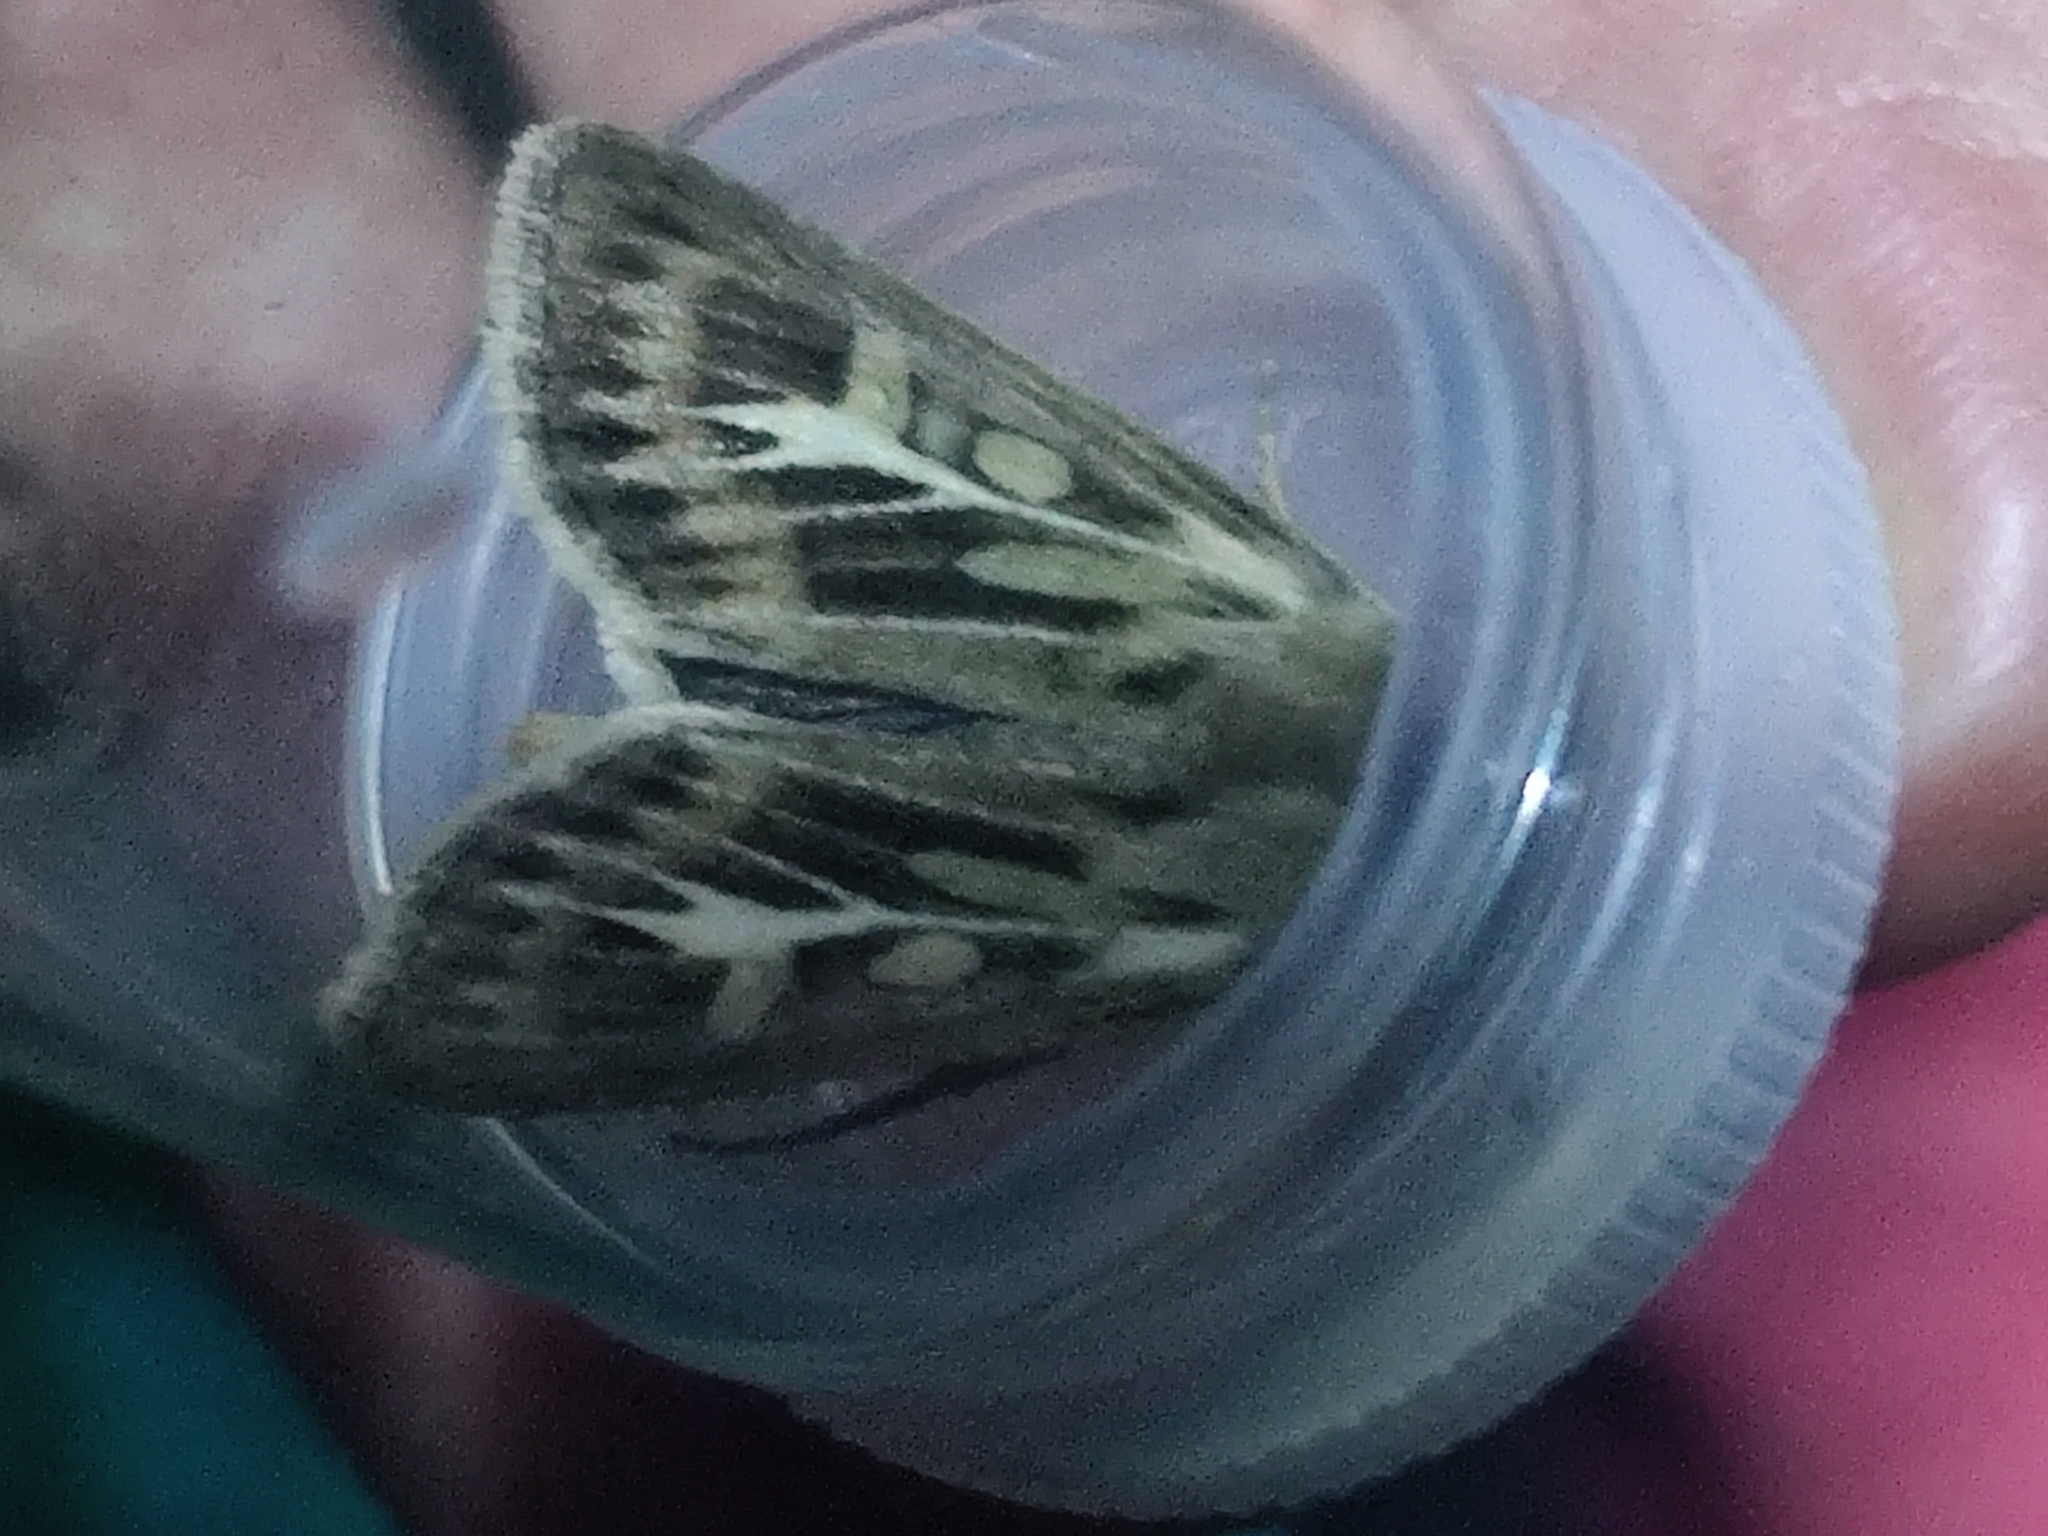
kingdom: Animalia
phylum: Arthropoda
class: Insecta
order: Lepidoptera
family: Noctuidae
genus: Cerapteryx
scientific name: Cerapteryx graminis
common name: Antler moth
